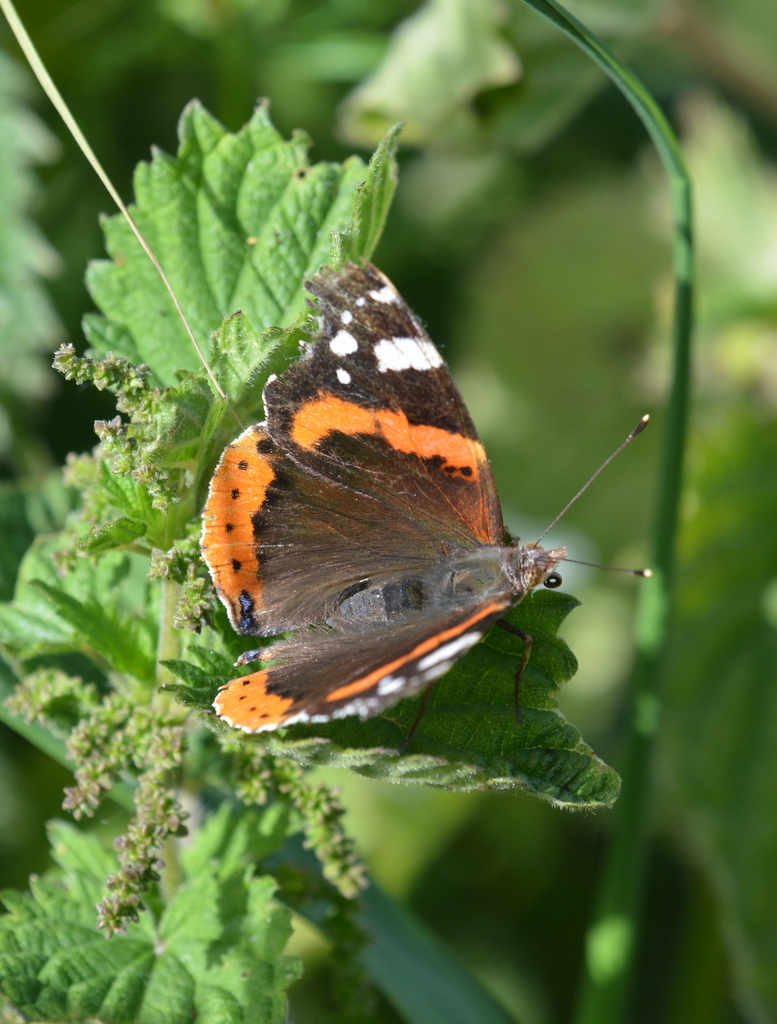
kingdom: Animalia
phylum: Arthropoda
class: Insecta
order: Lepidoptera
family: Nymphalidae
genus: Vanessa
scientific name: Vanessa atalanta
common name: Red admiral
